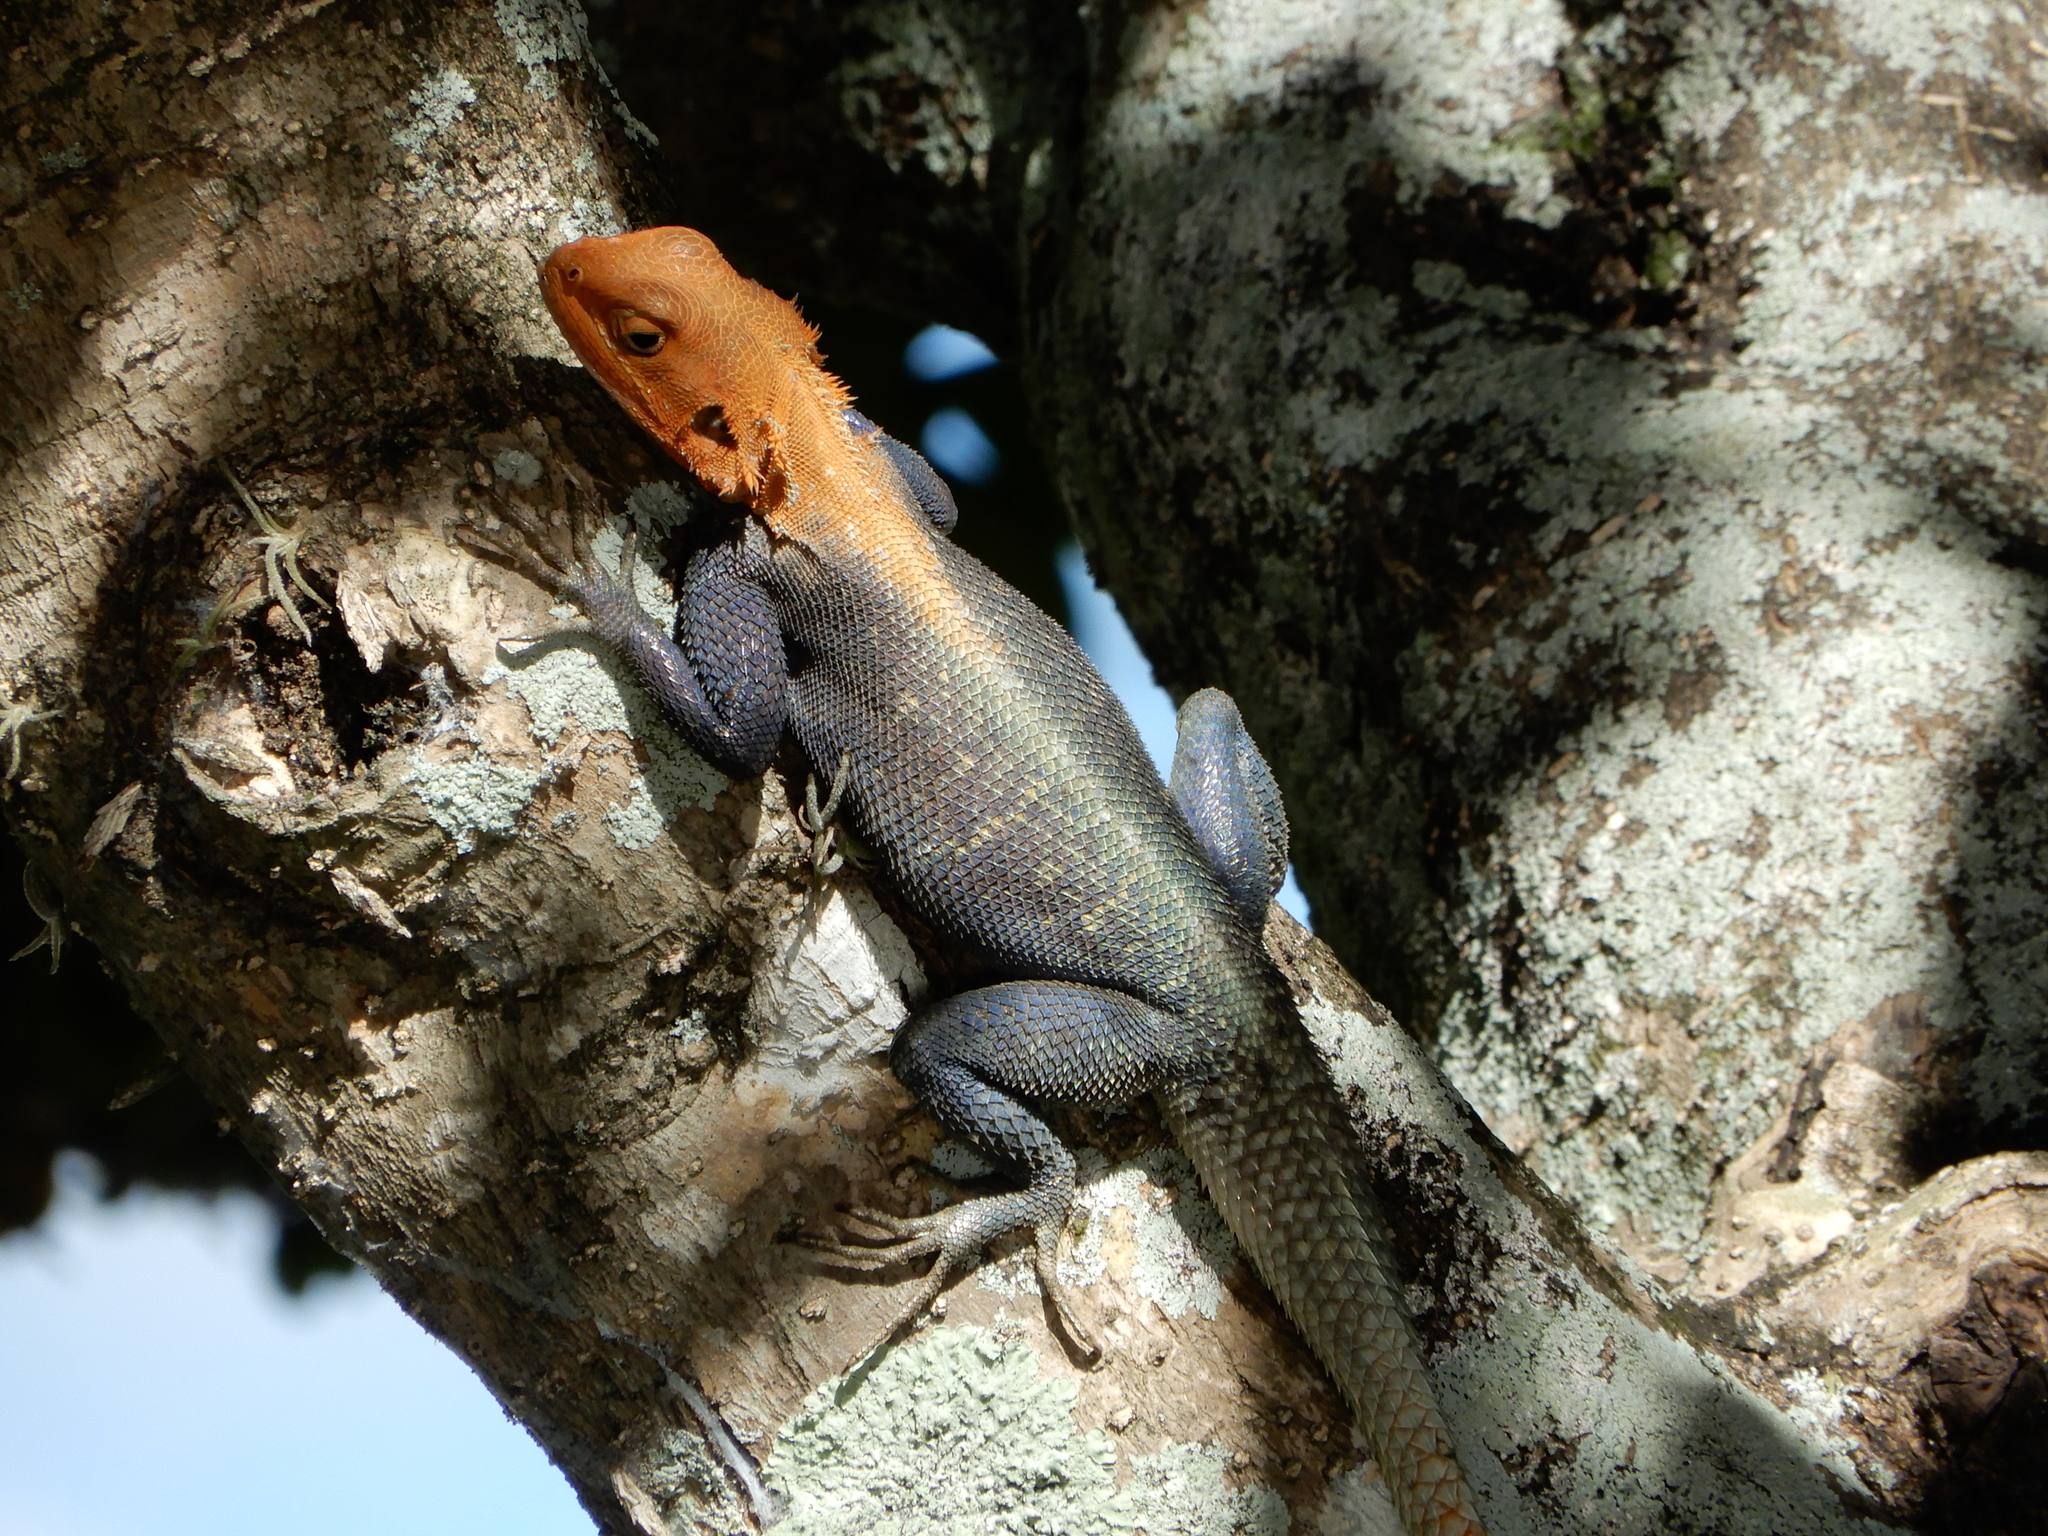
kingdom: Animalia
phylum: Chordata
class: Squamata
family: Agamidae
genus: Agama
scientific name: Agama picticauda
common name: Red-headed agama
